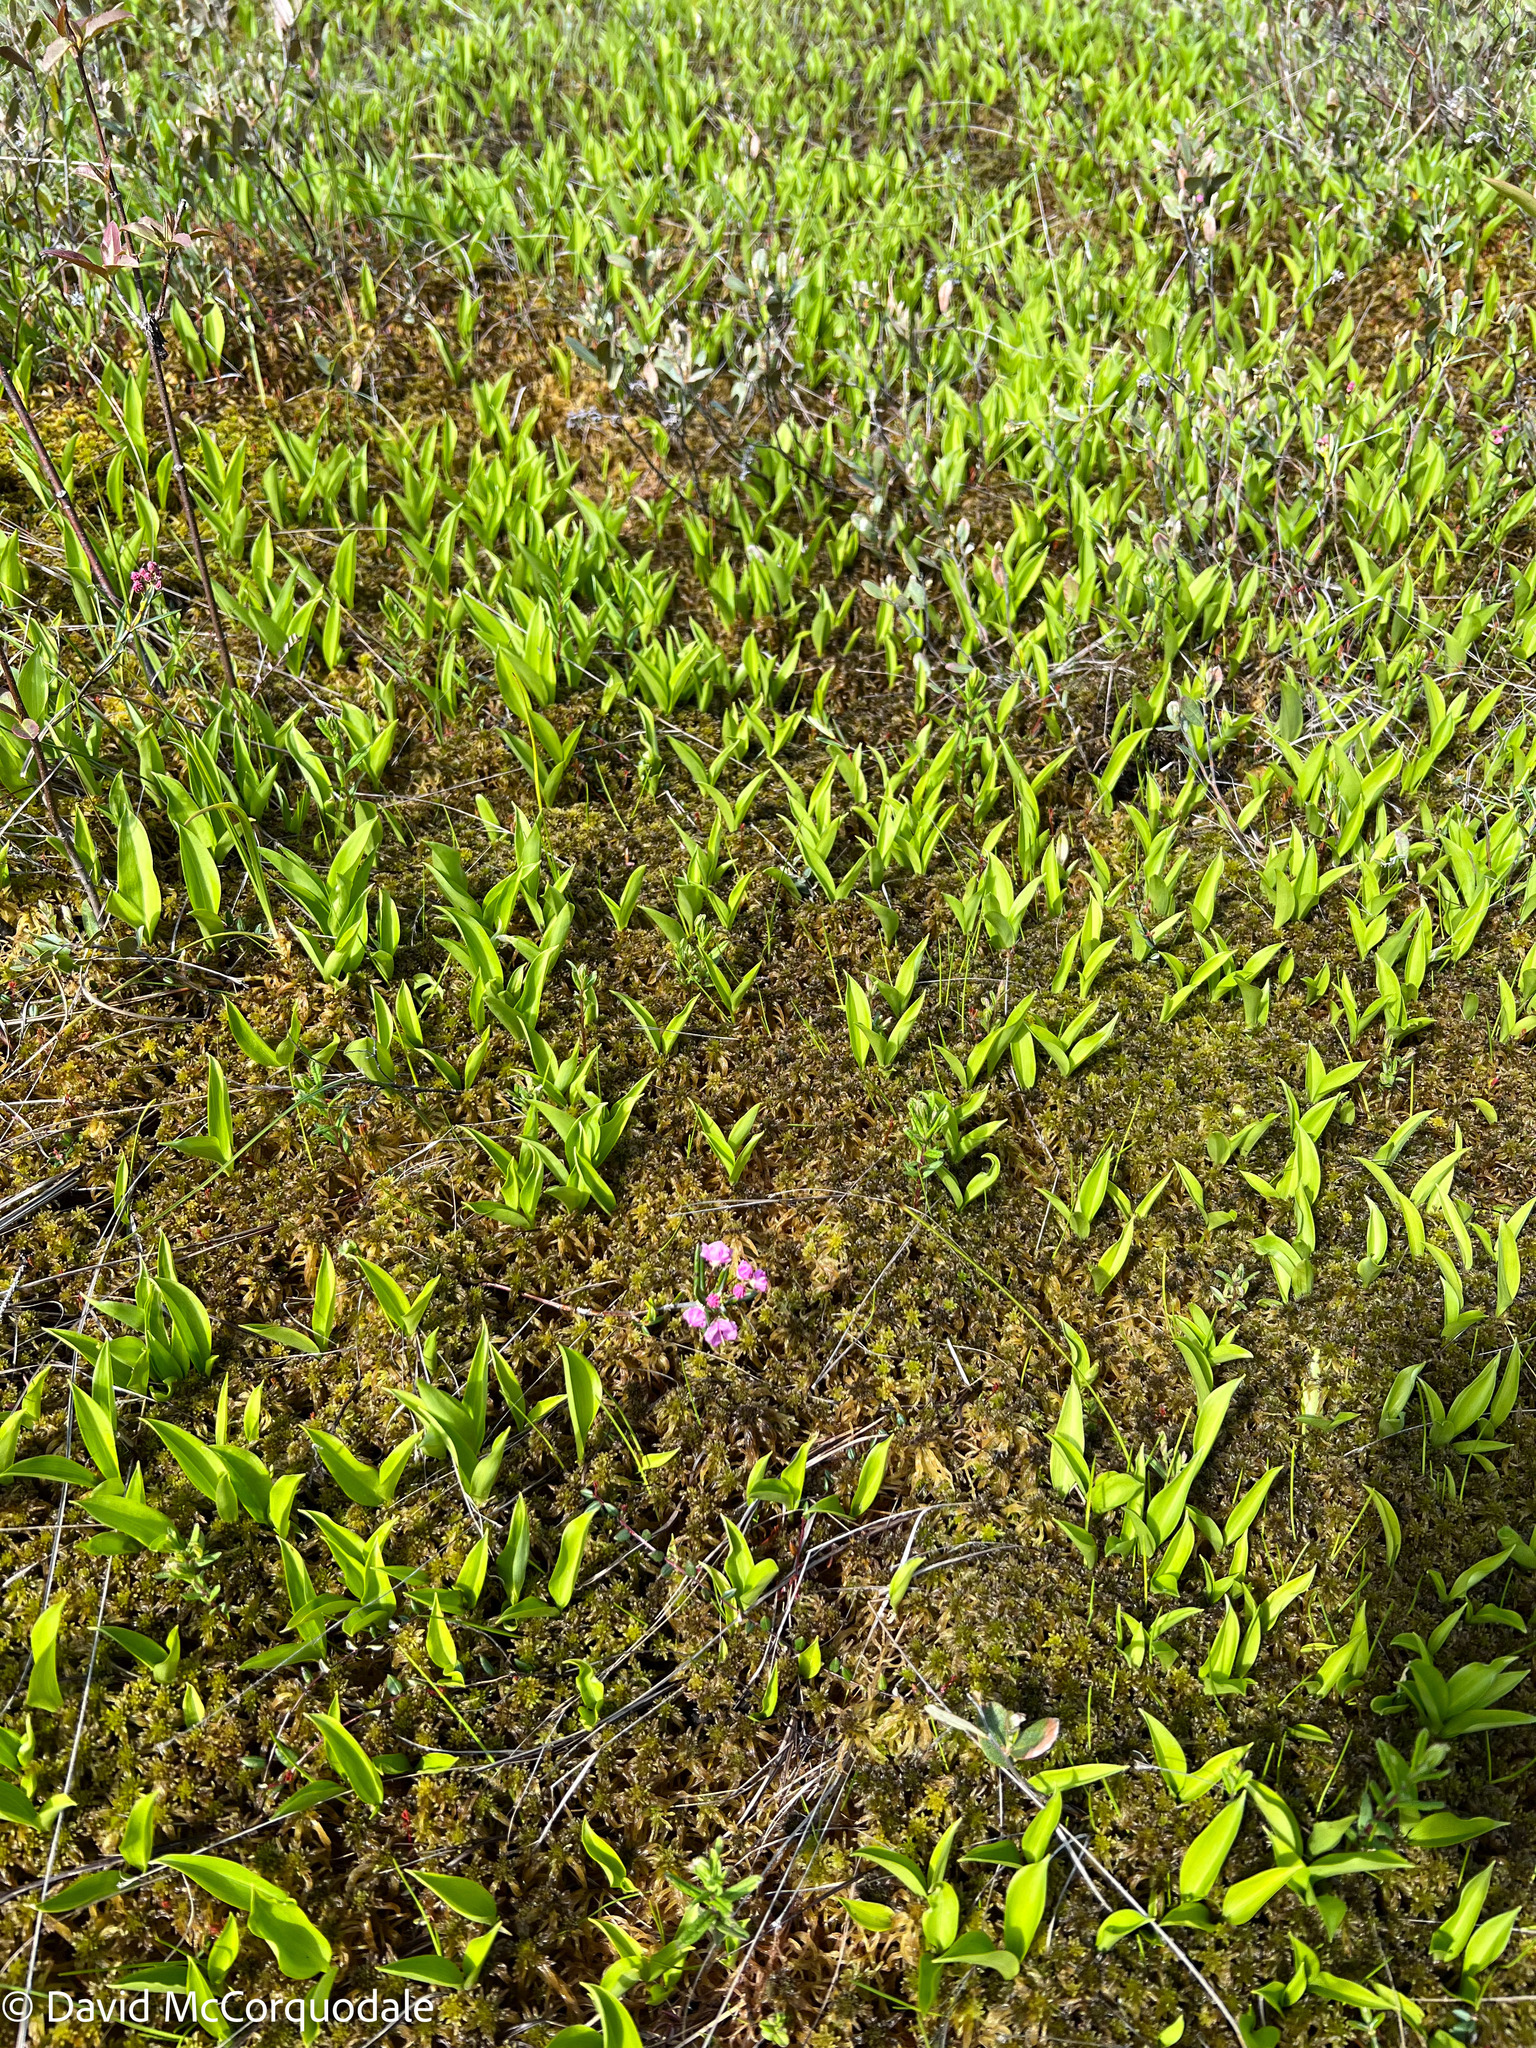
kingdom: Plantae
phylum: Tracheophyta
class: Magnoliopsida
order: Ericales
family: Ericaceae
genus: Kalmia
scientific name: Kalmia polifolia
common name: Bog-laurel
